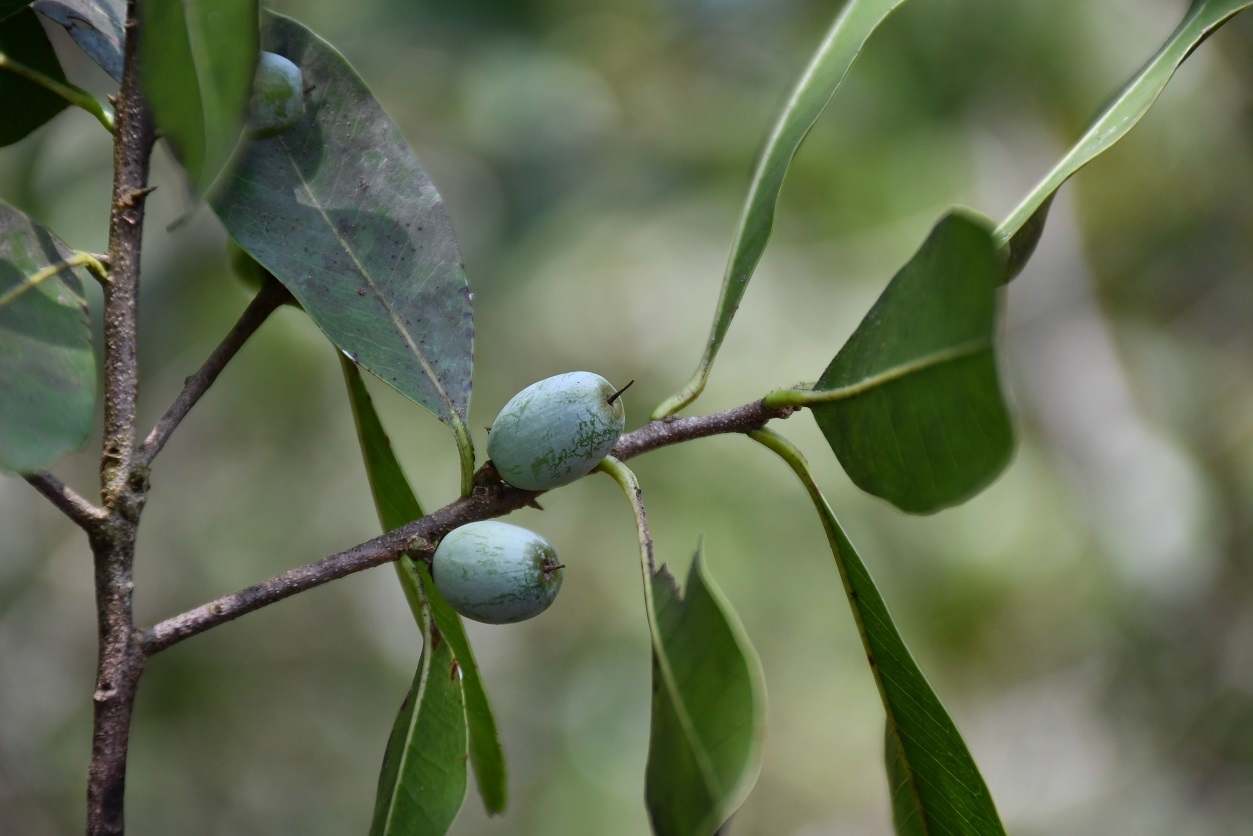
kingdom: Plantae
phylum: Tracheophyta
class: Magnoliopsida
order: Ericales
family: Sapotaceae
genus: Sideroxylon
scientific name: Sideroxylon persimile
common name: Bumelia
